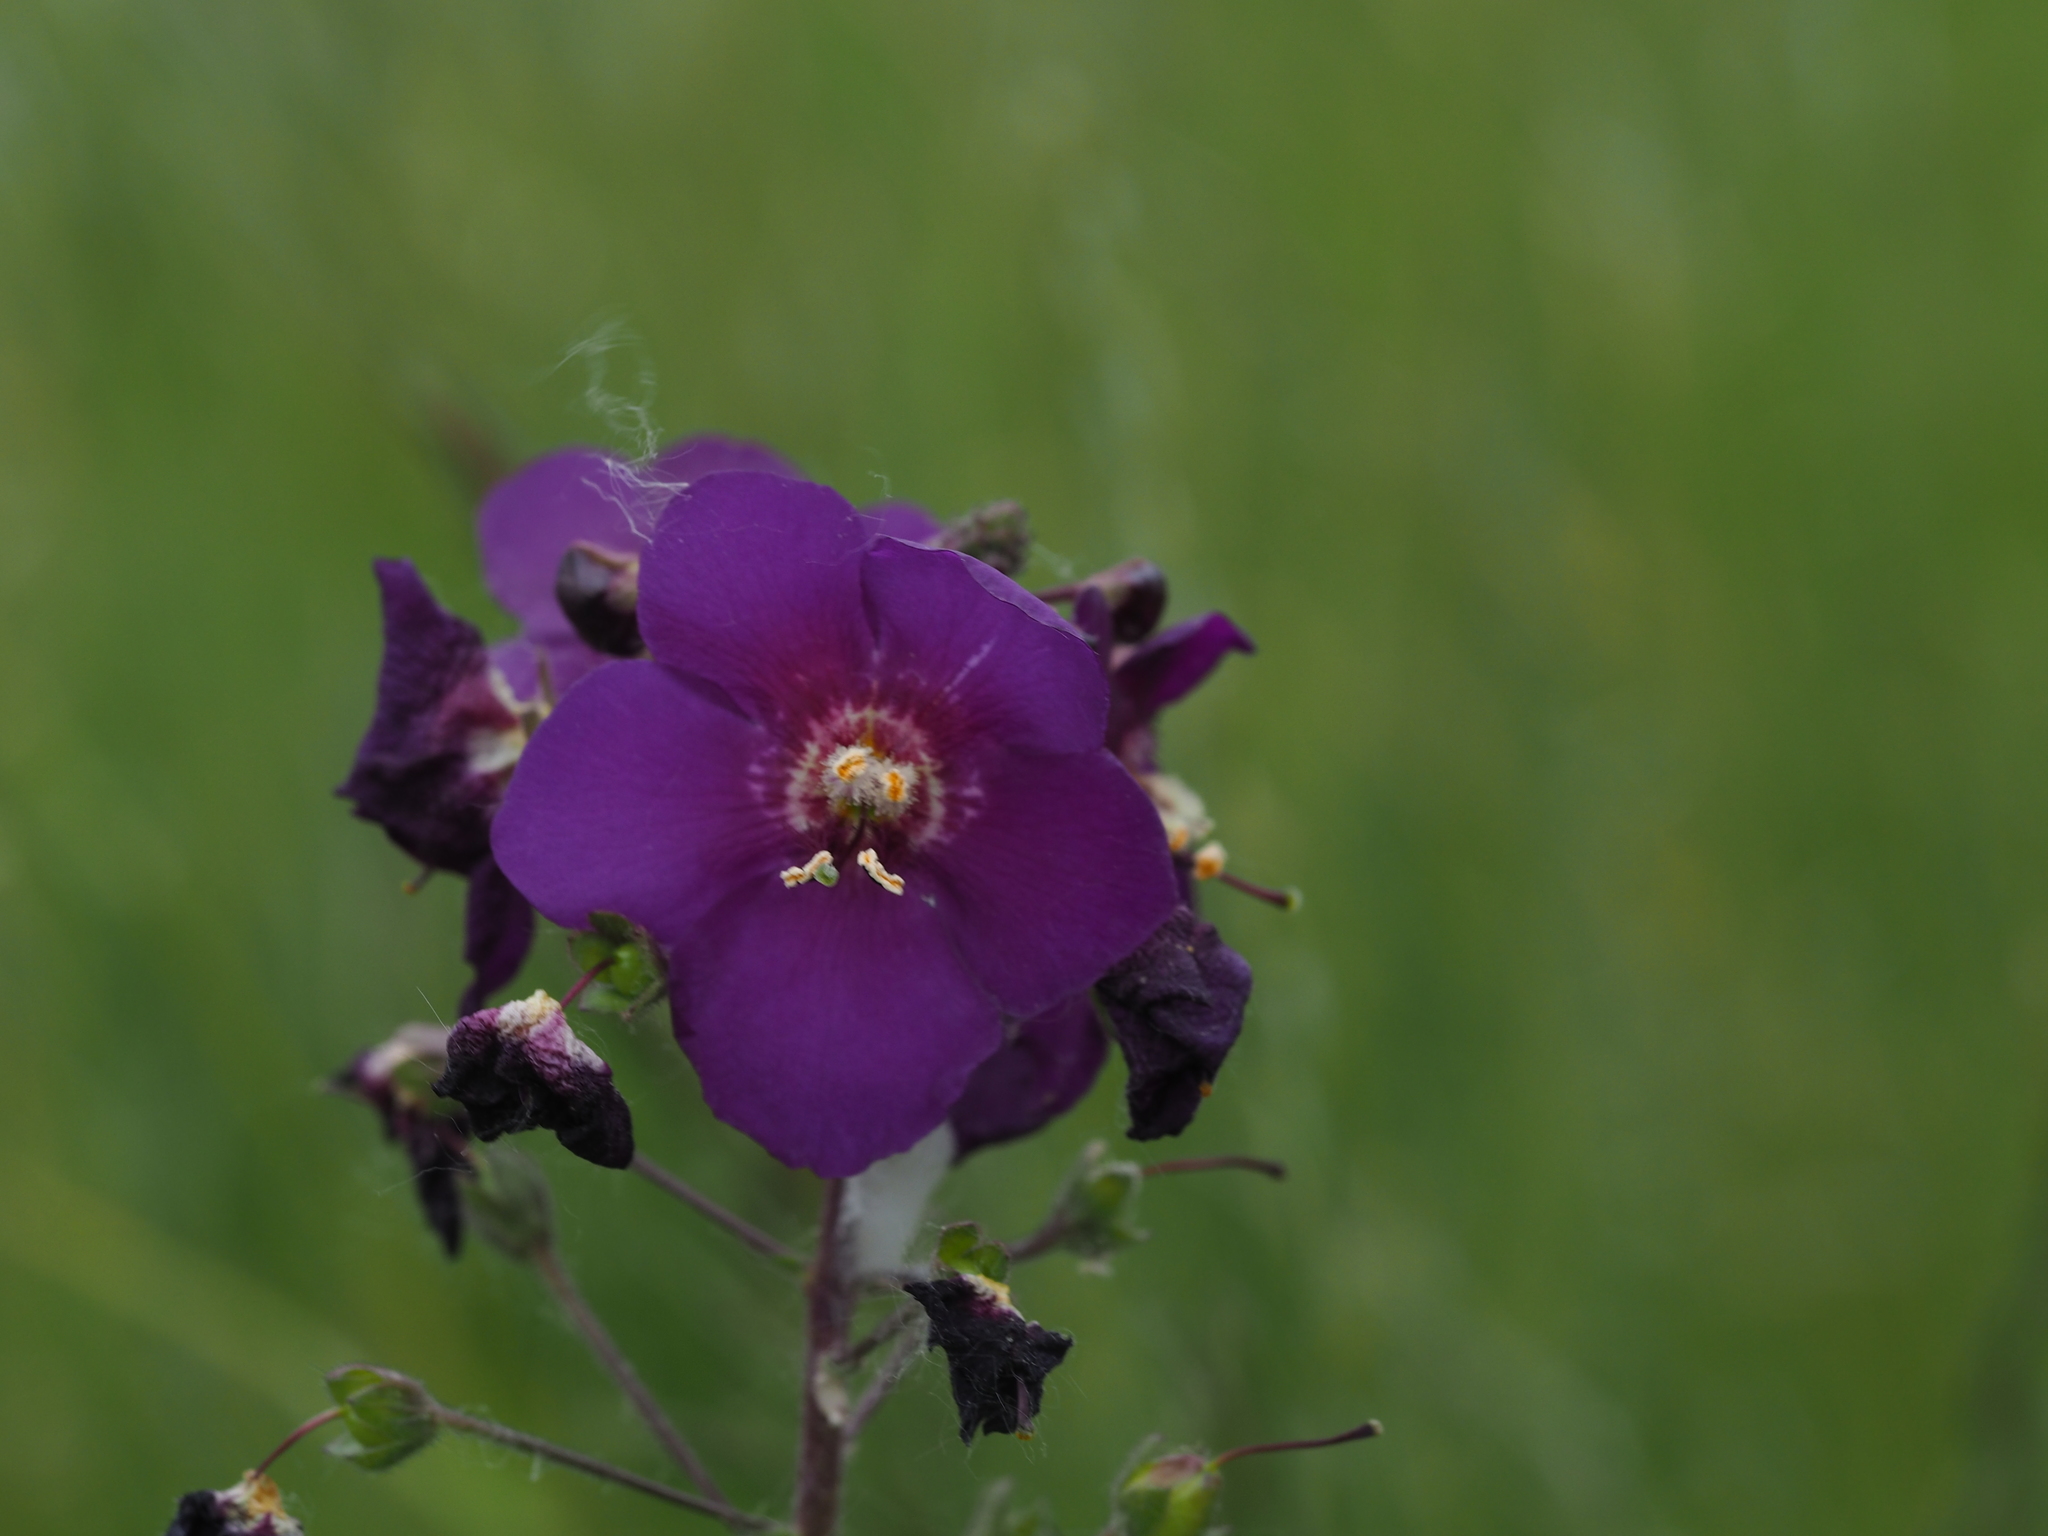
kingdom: Plantae
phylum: Tracheophyta
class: Magnoliopsida
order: Lamiales
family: Scrophulariaceae
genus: Verbascum
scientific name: Verbascum phoeniceum
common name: Purple mullein
